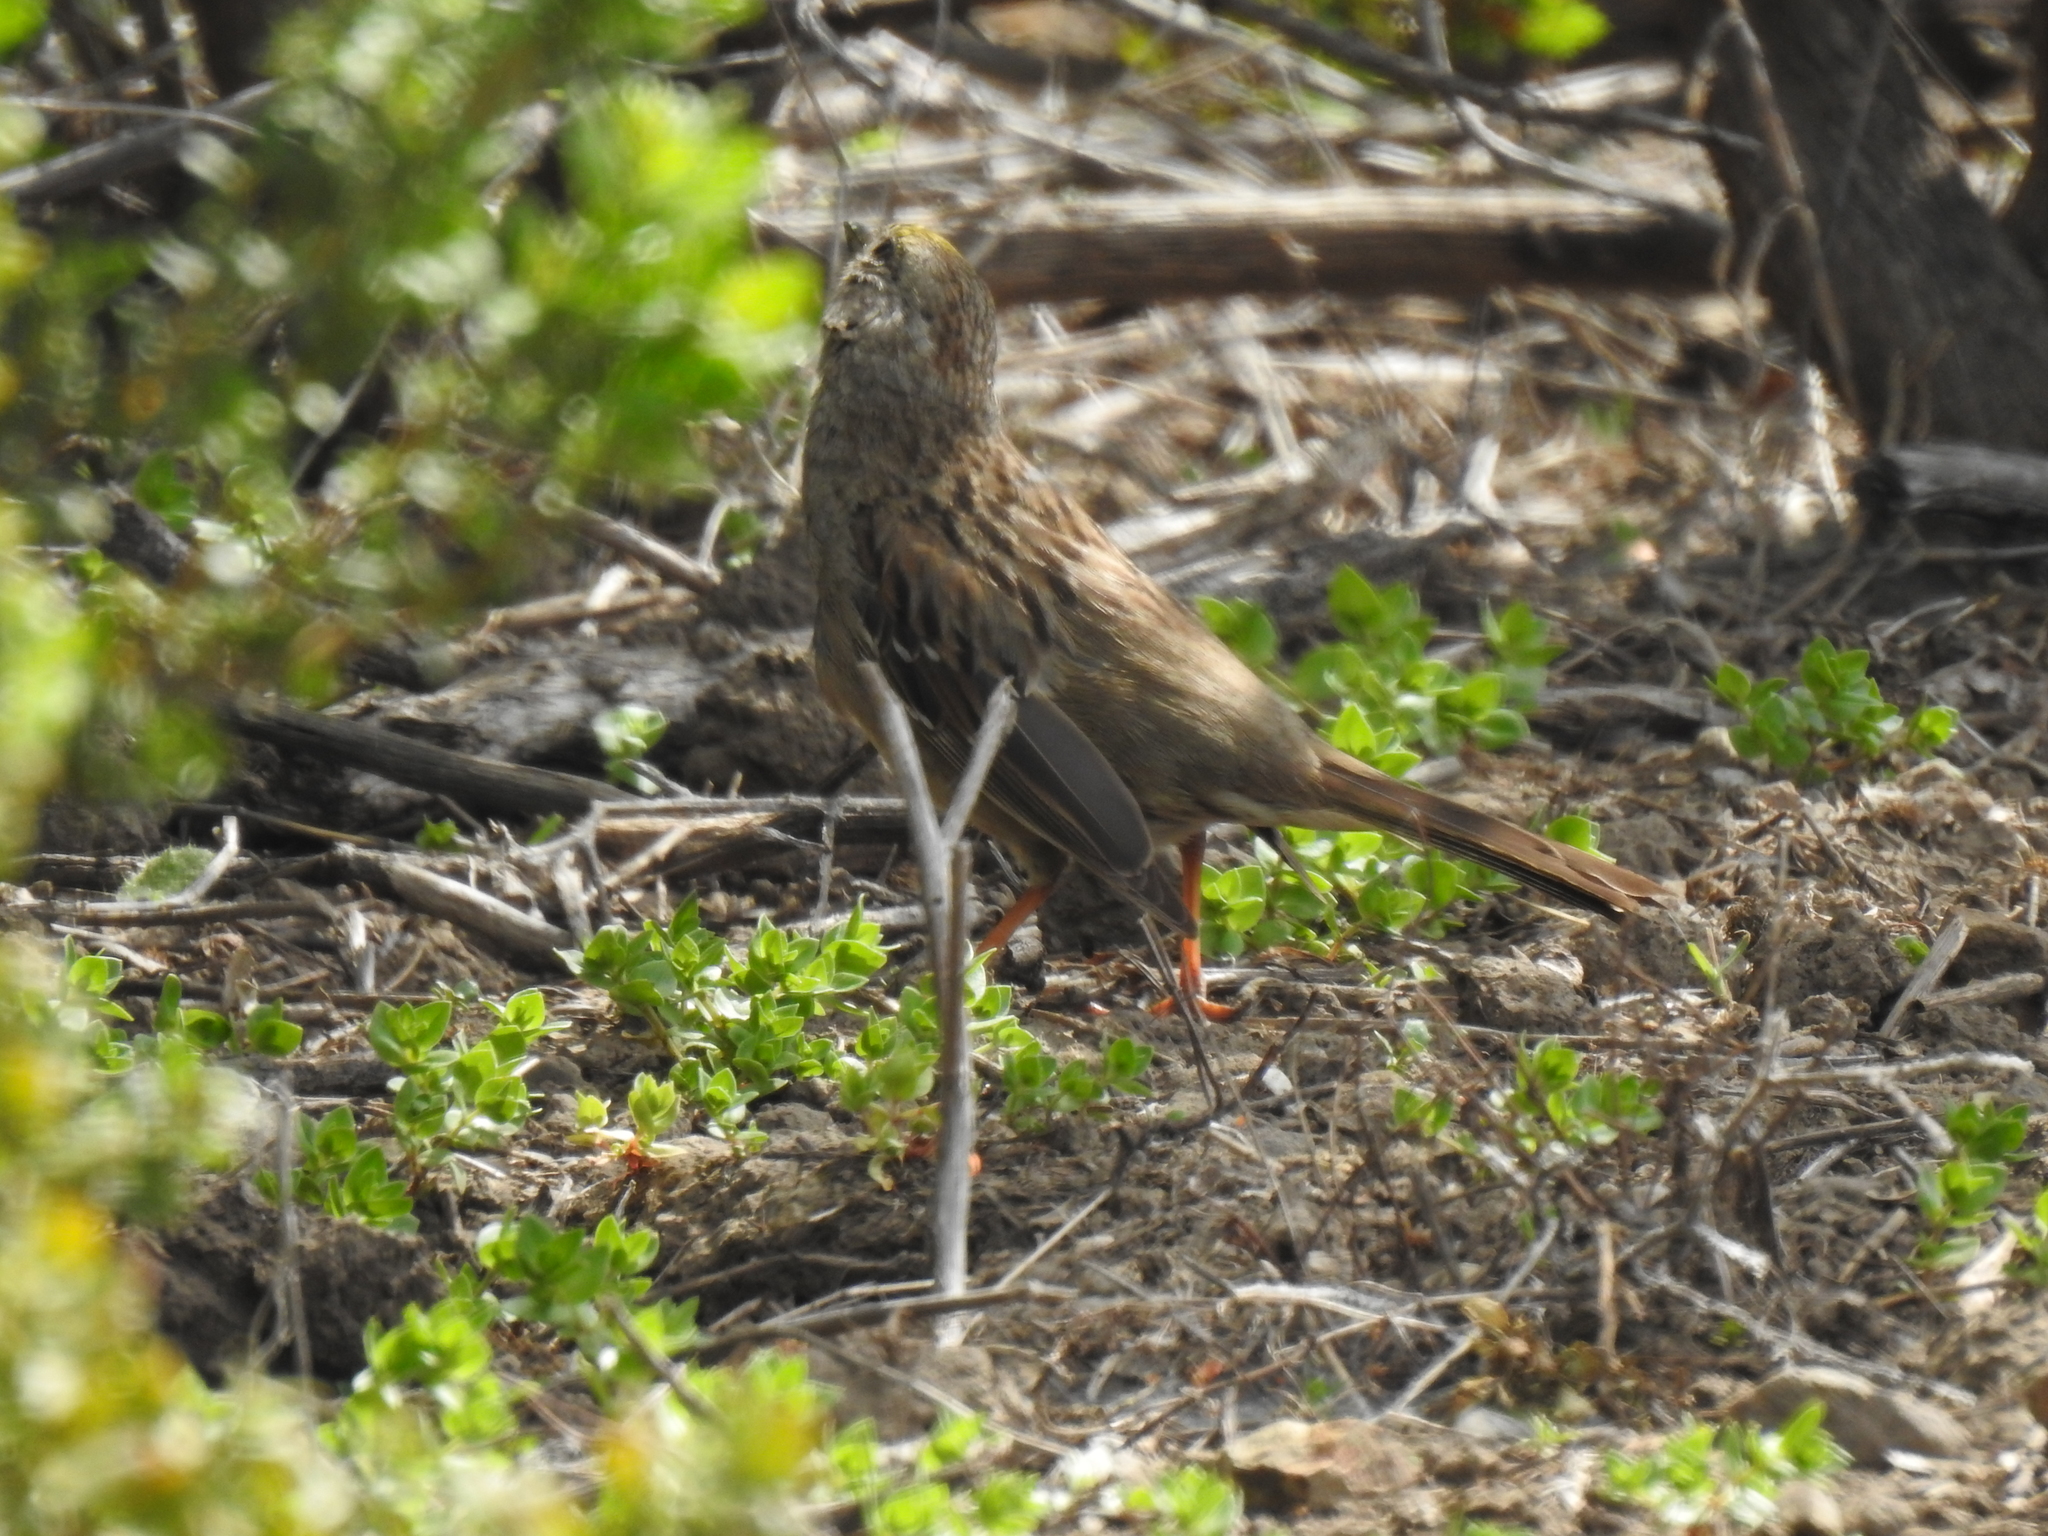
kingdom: Animalia
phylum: Chordata
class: Aves
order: Passeriformes
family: Passerellidae
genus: Zonotrichia
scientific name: Zonotrichia atricapilla
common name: Golden-crowned sparrow
